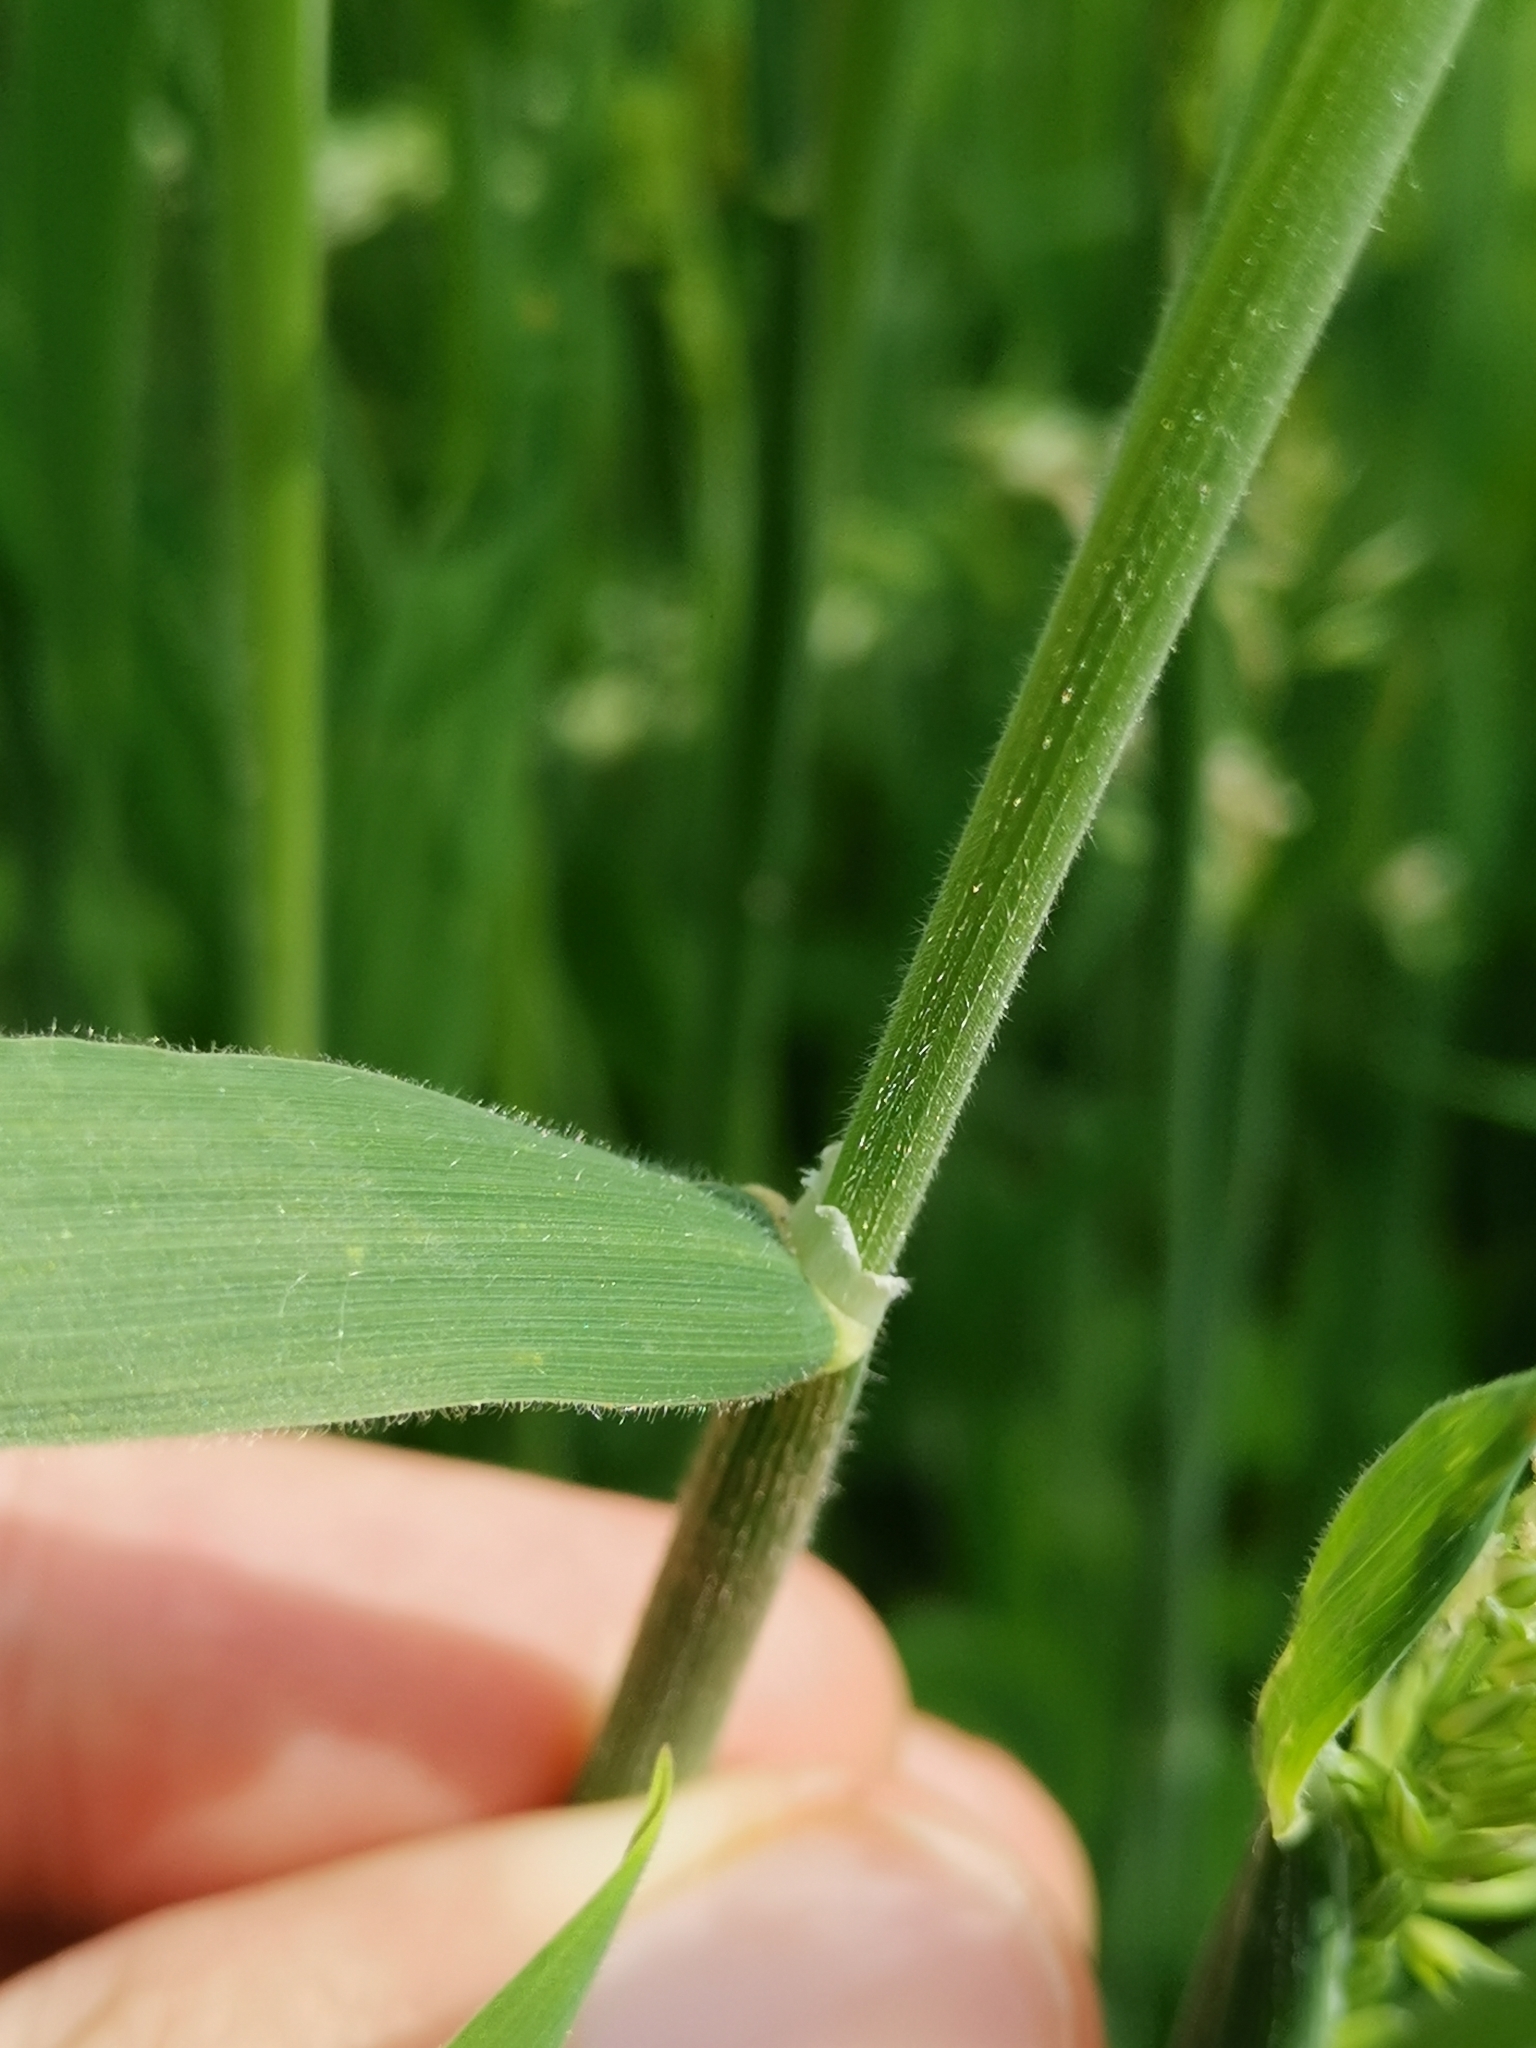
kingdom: Plantae
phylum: Tracheophyta
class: Liliopsida
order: Poales
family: Poaceae
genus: Holcus
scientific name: Holcus lanatus
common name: Yorkshire-fog
